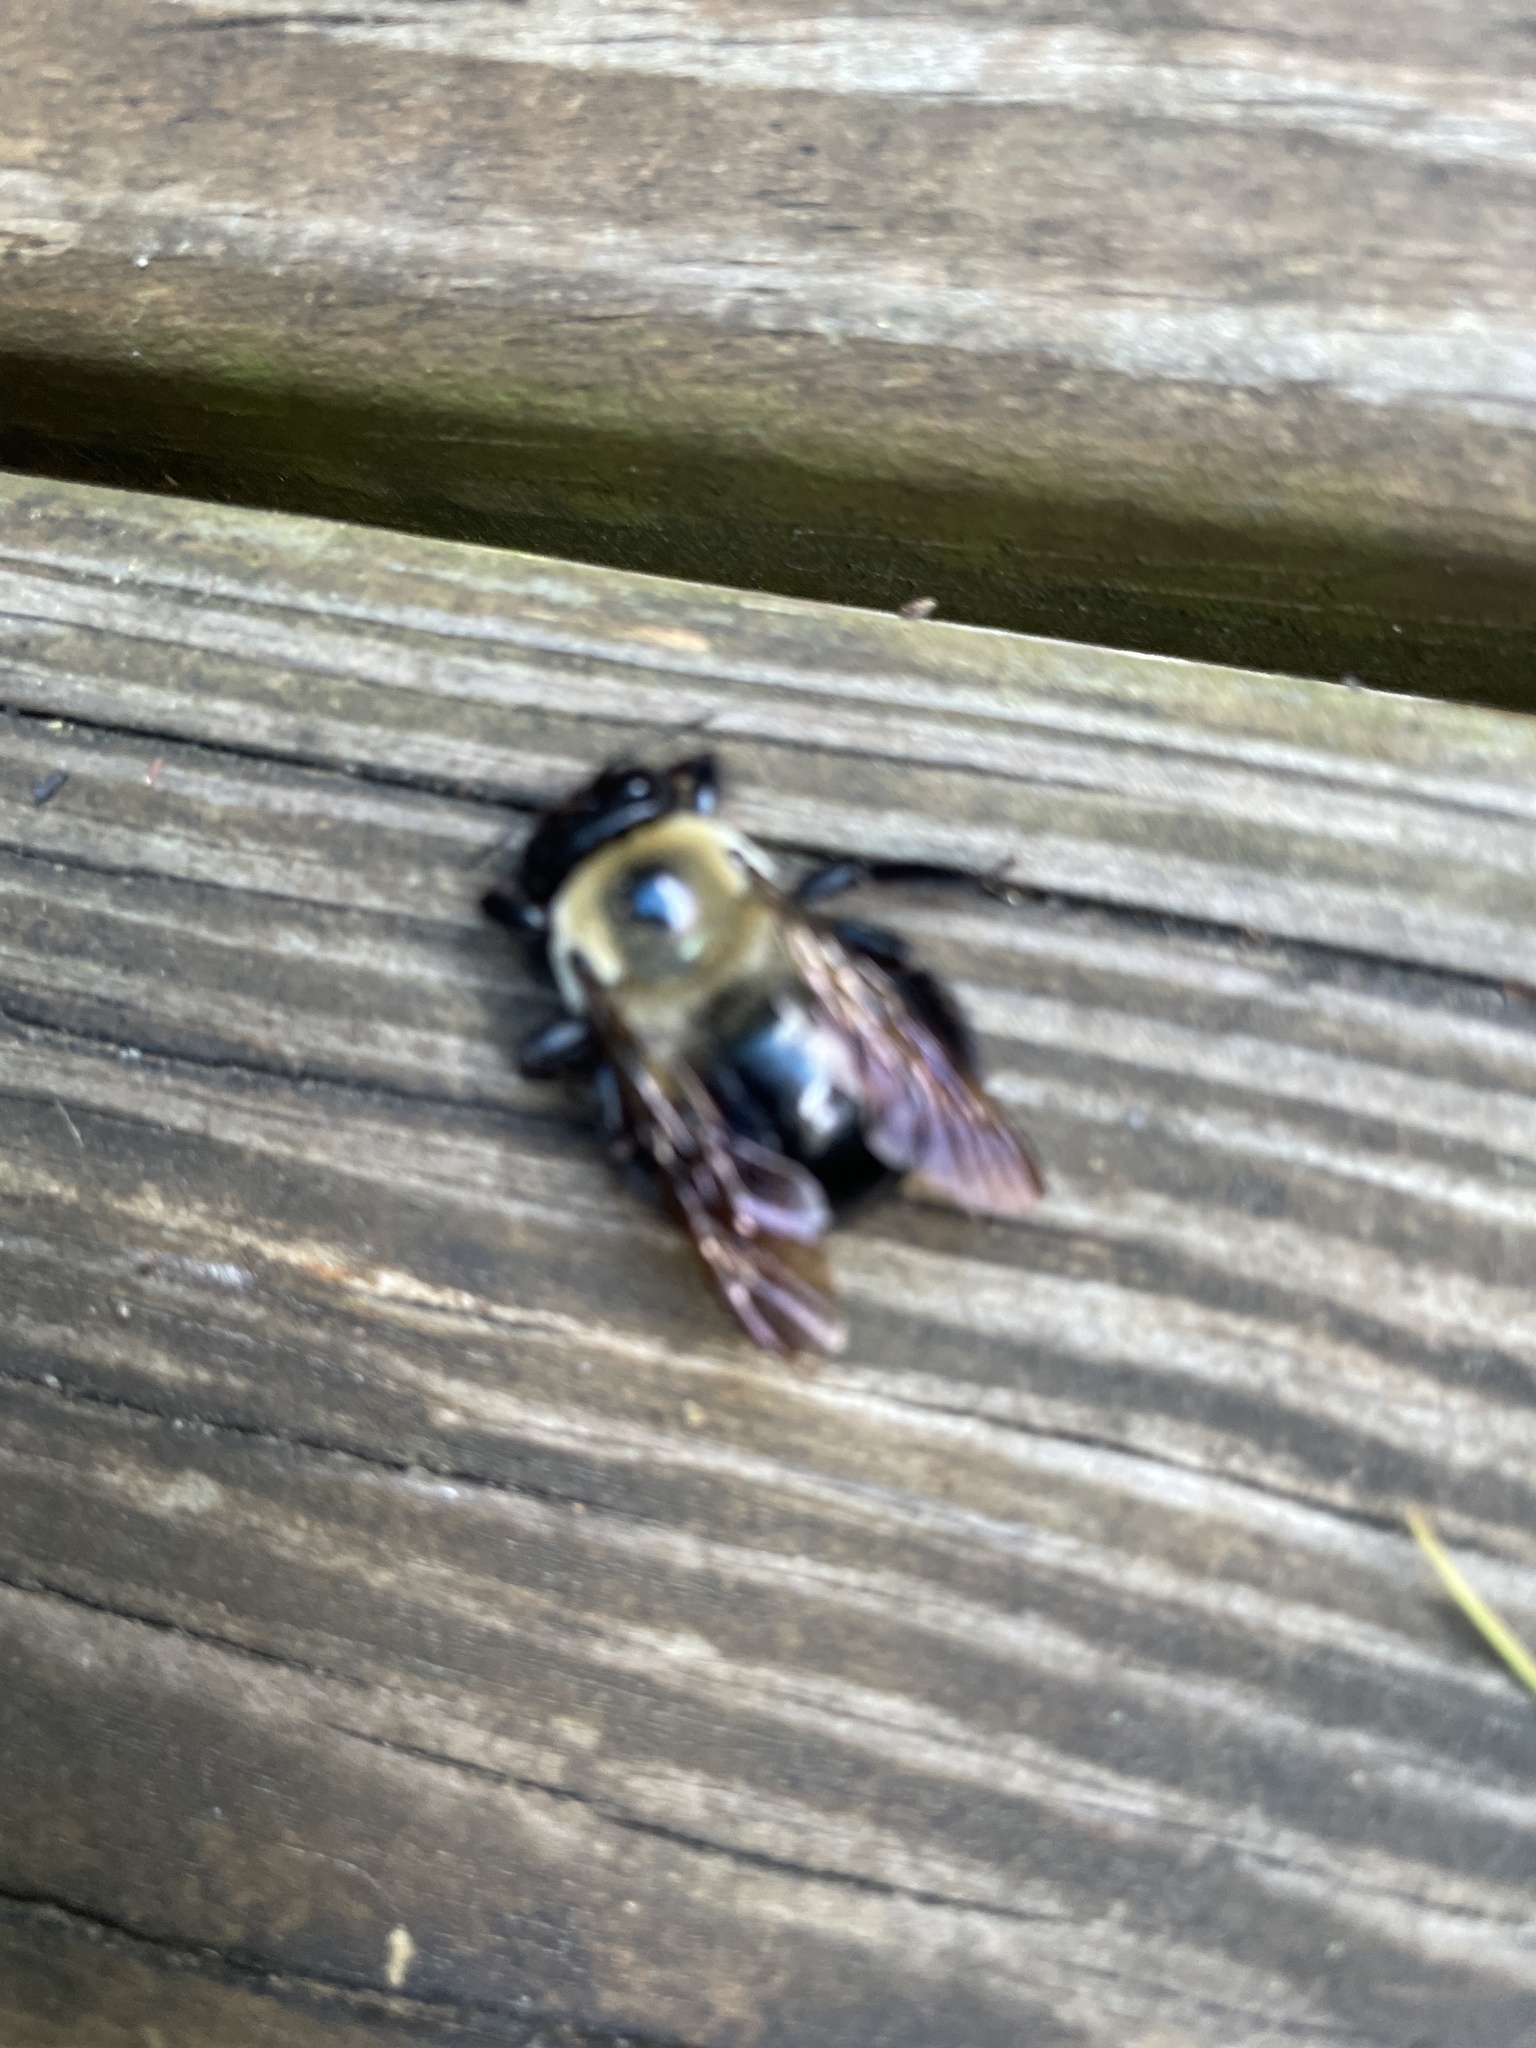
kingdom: Animalia
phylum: Arthropoda
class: Insecta
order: Hymenoptera
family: Apidae
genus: Xylocopa
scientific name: Xylocopa virginica
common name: Carpenter bee
